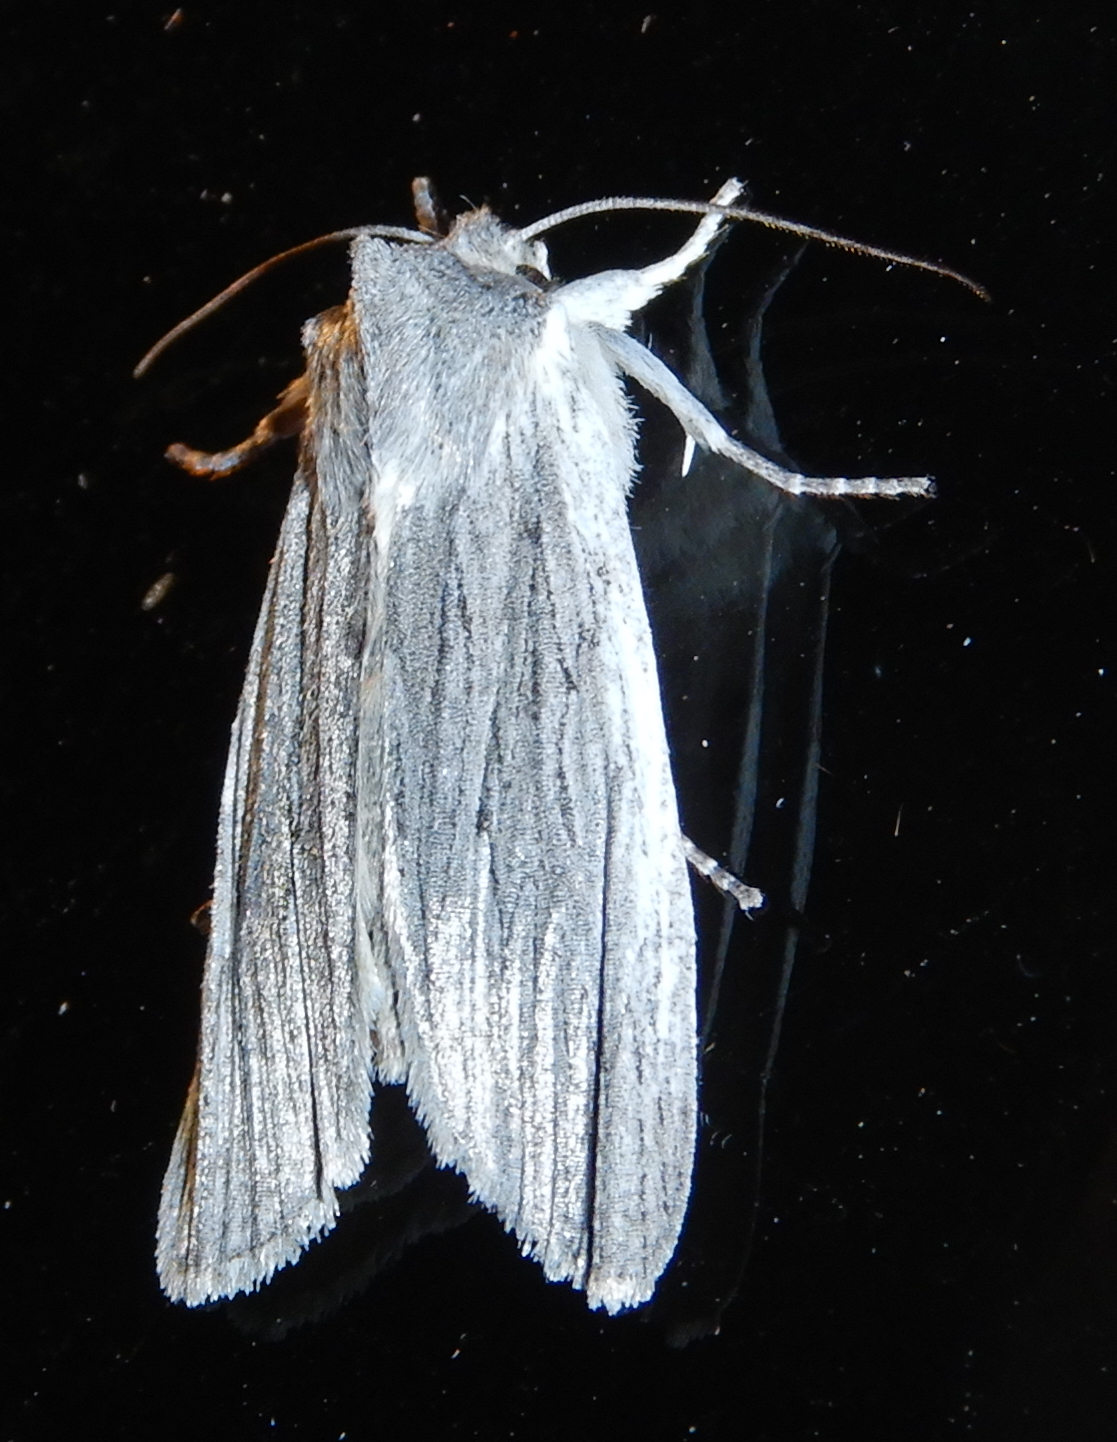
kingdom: Animalia
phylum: Arthropoda
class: Insecta
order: Lepidoptera
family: Noctuidae
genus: Lithophane
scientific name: Lithophane fagina
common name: Hoary pinion moth
